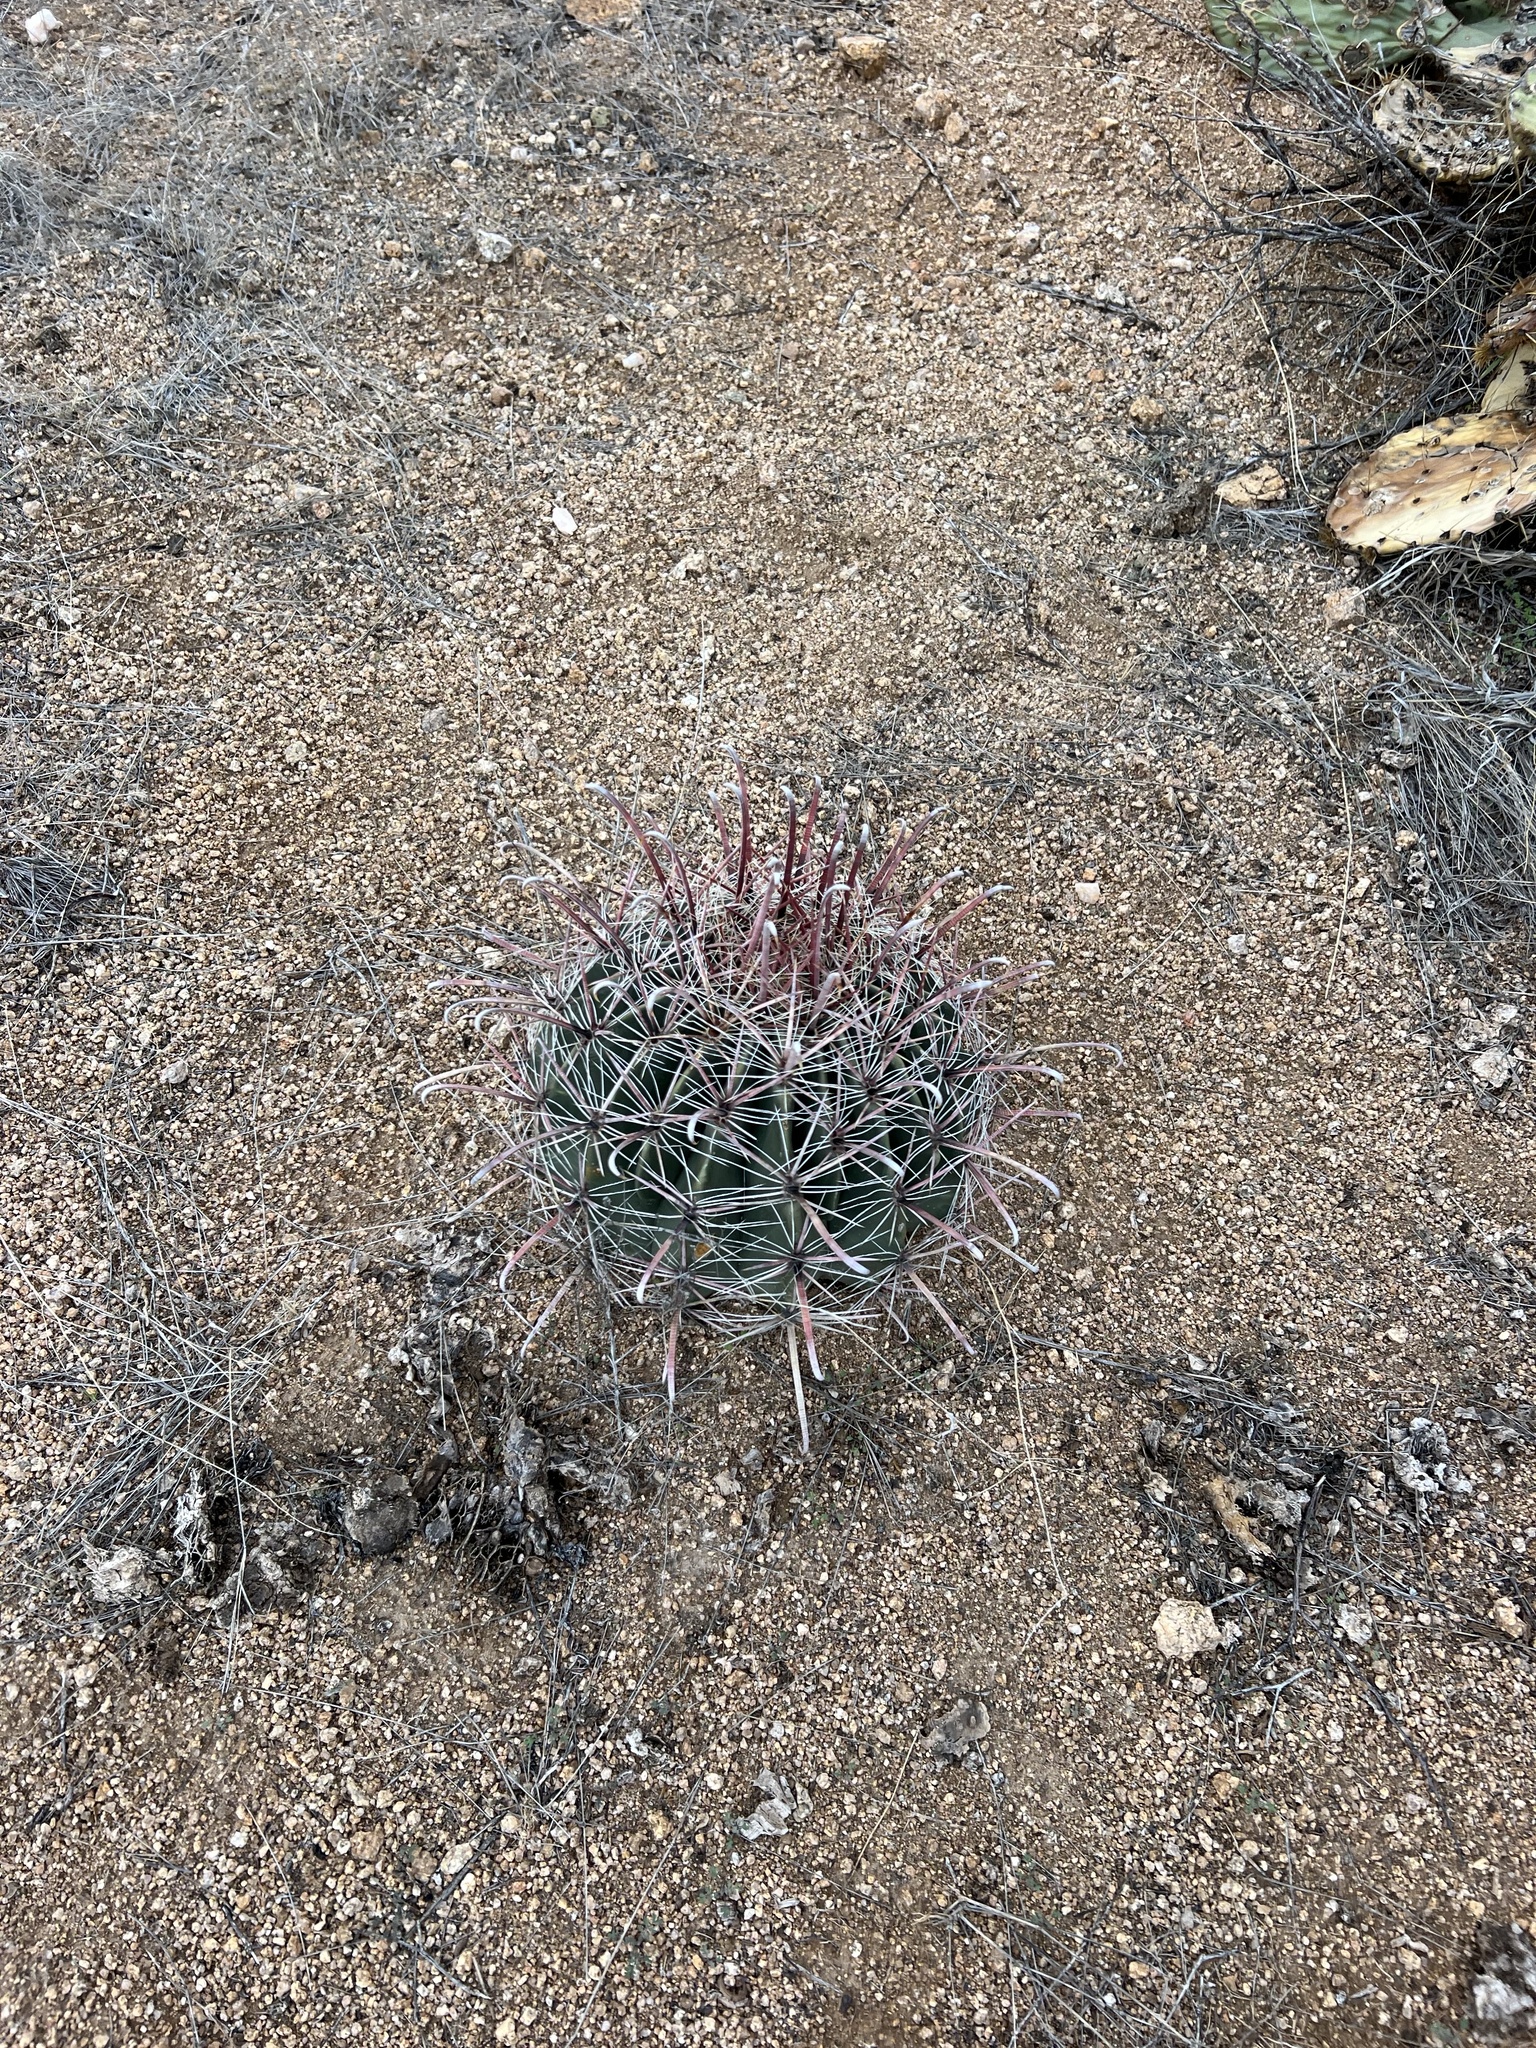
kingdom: Plantae
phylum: Tracheophyta
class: Magnoliopsida
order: Caryophyllales
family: Cactaceae
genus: Ferocactus
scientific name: Ferocactus wislizeni
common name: Candy barrel cactus
